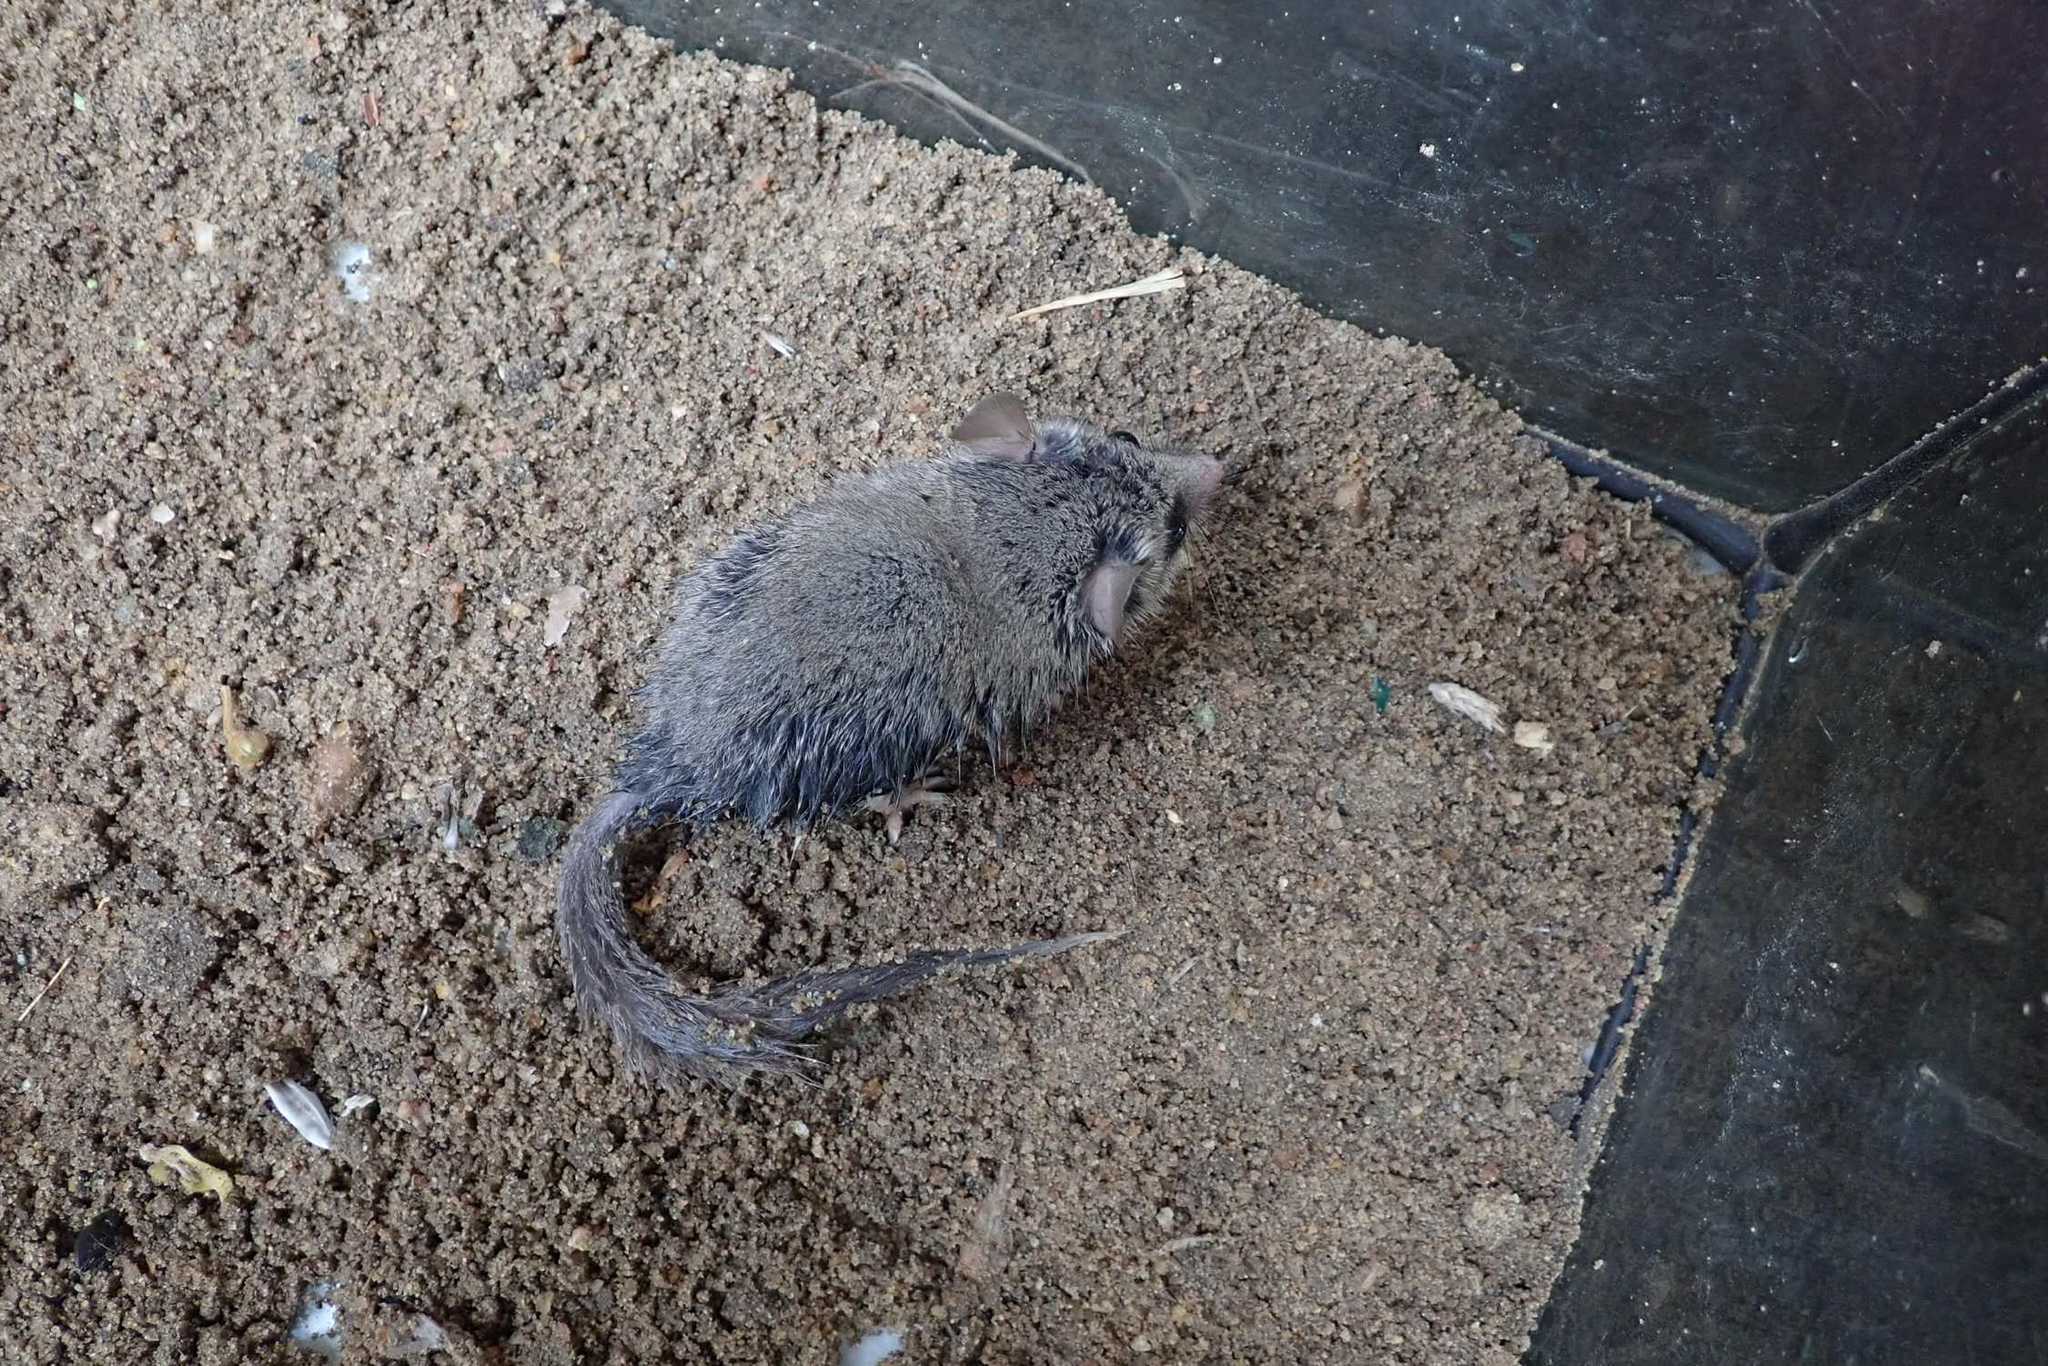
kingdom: Animalia
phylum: Chordata
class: Mammalia
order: Rodentia
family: Gliridae
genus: Graphiurus
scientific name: Graphiurus murinus
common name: Forest african dormouse
